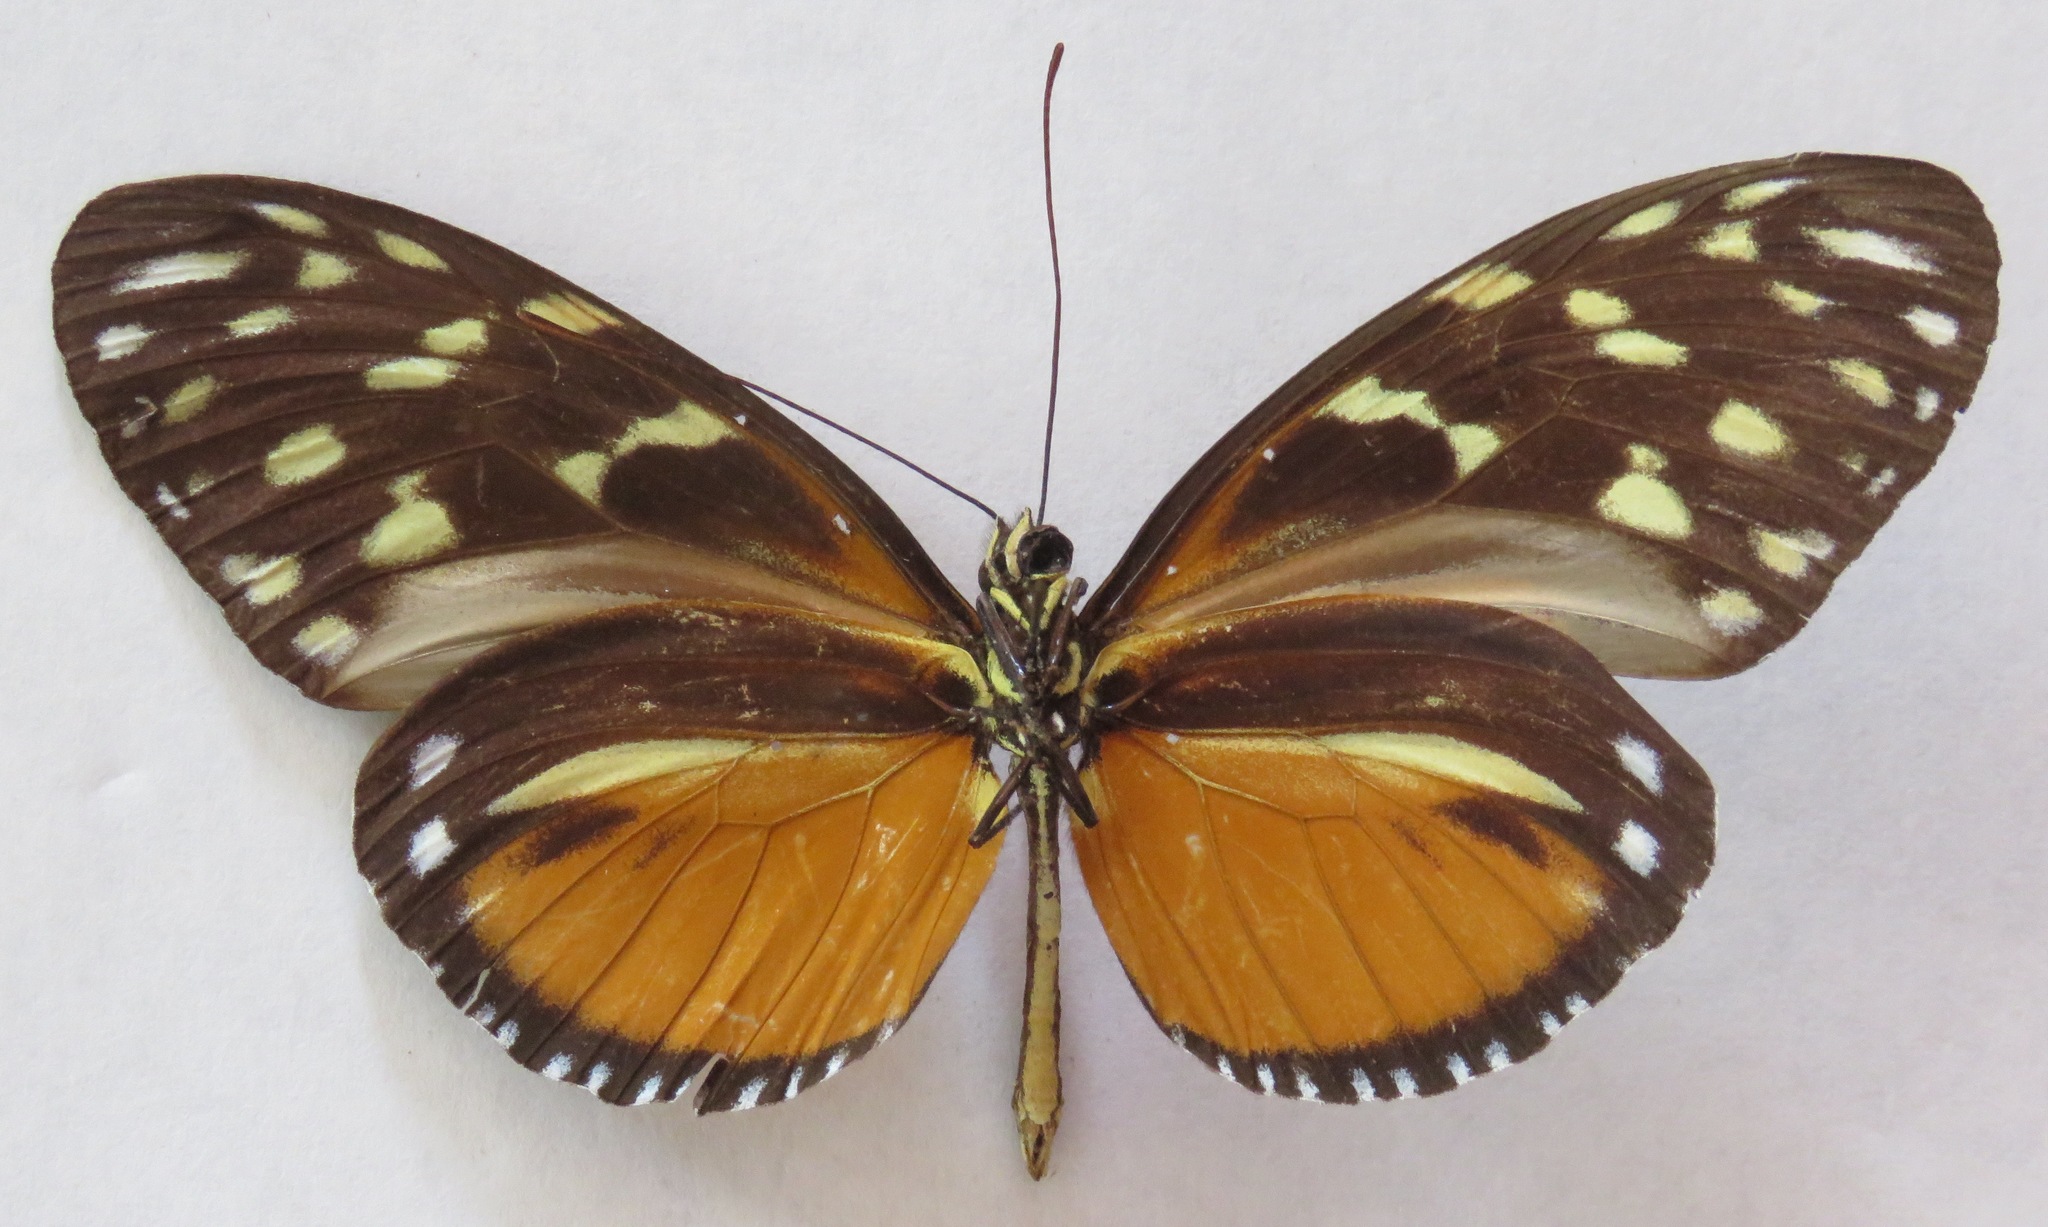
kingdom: Animalia
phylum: Arthropoda
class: Insecta
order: Lepidoptera
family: Nymphalidae
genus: Heliconius
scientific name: Heliconius hecale
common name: Tiger longwing
